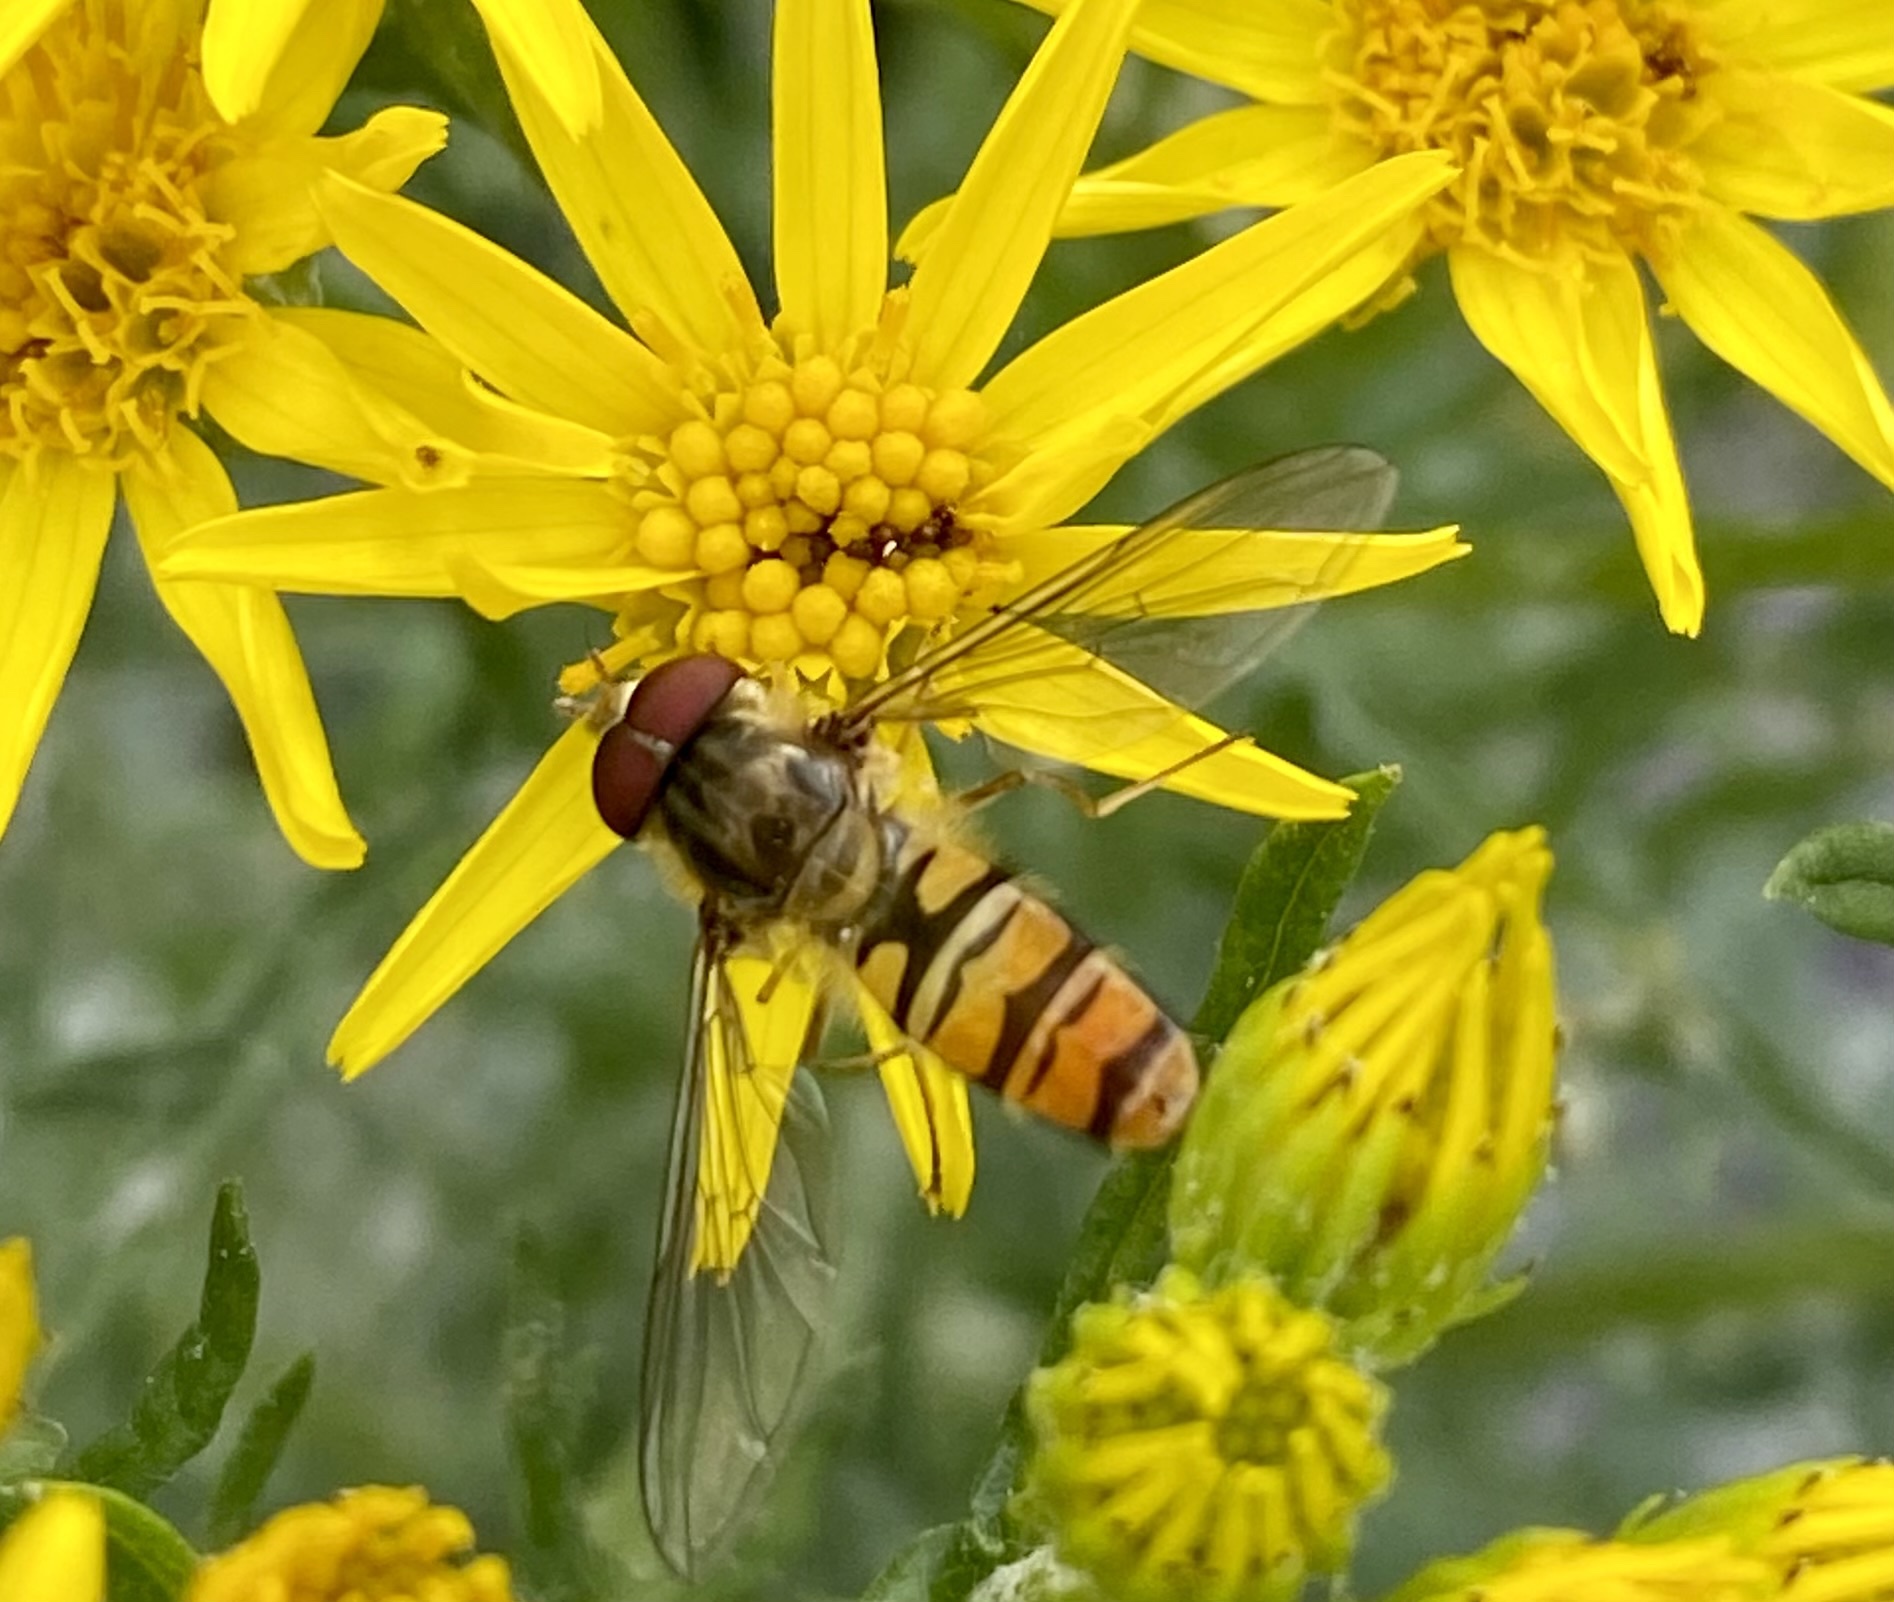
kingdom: Animalia
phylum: Arthropoda
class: Insecta
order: Diptera
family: Syrphidae
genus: Episyrphus
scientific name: Episyrphus balteatus
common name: Marmalade hoverfly
